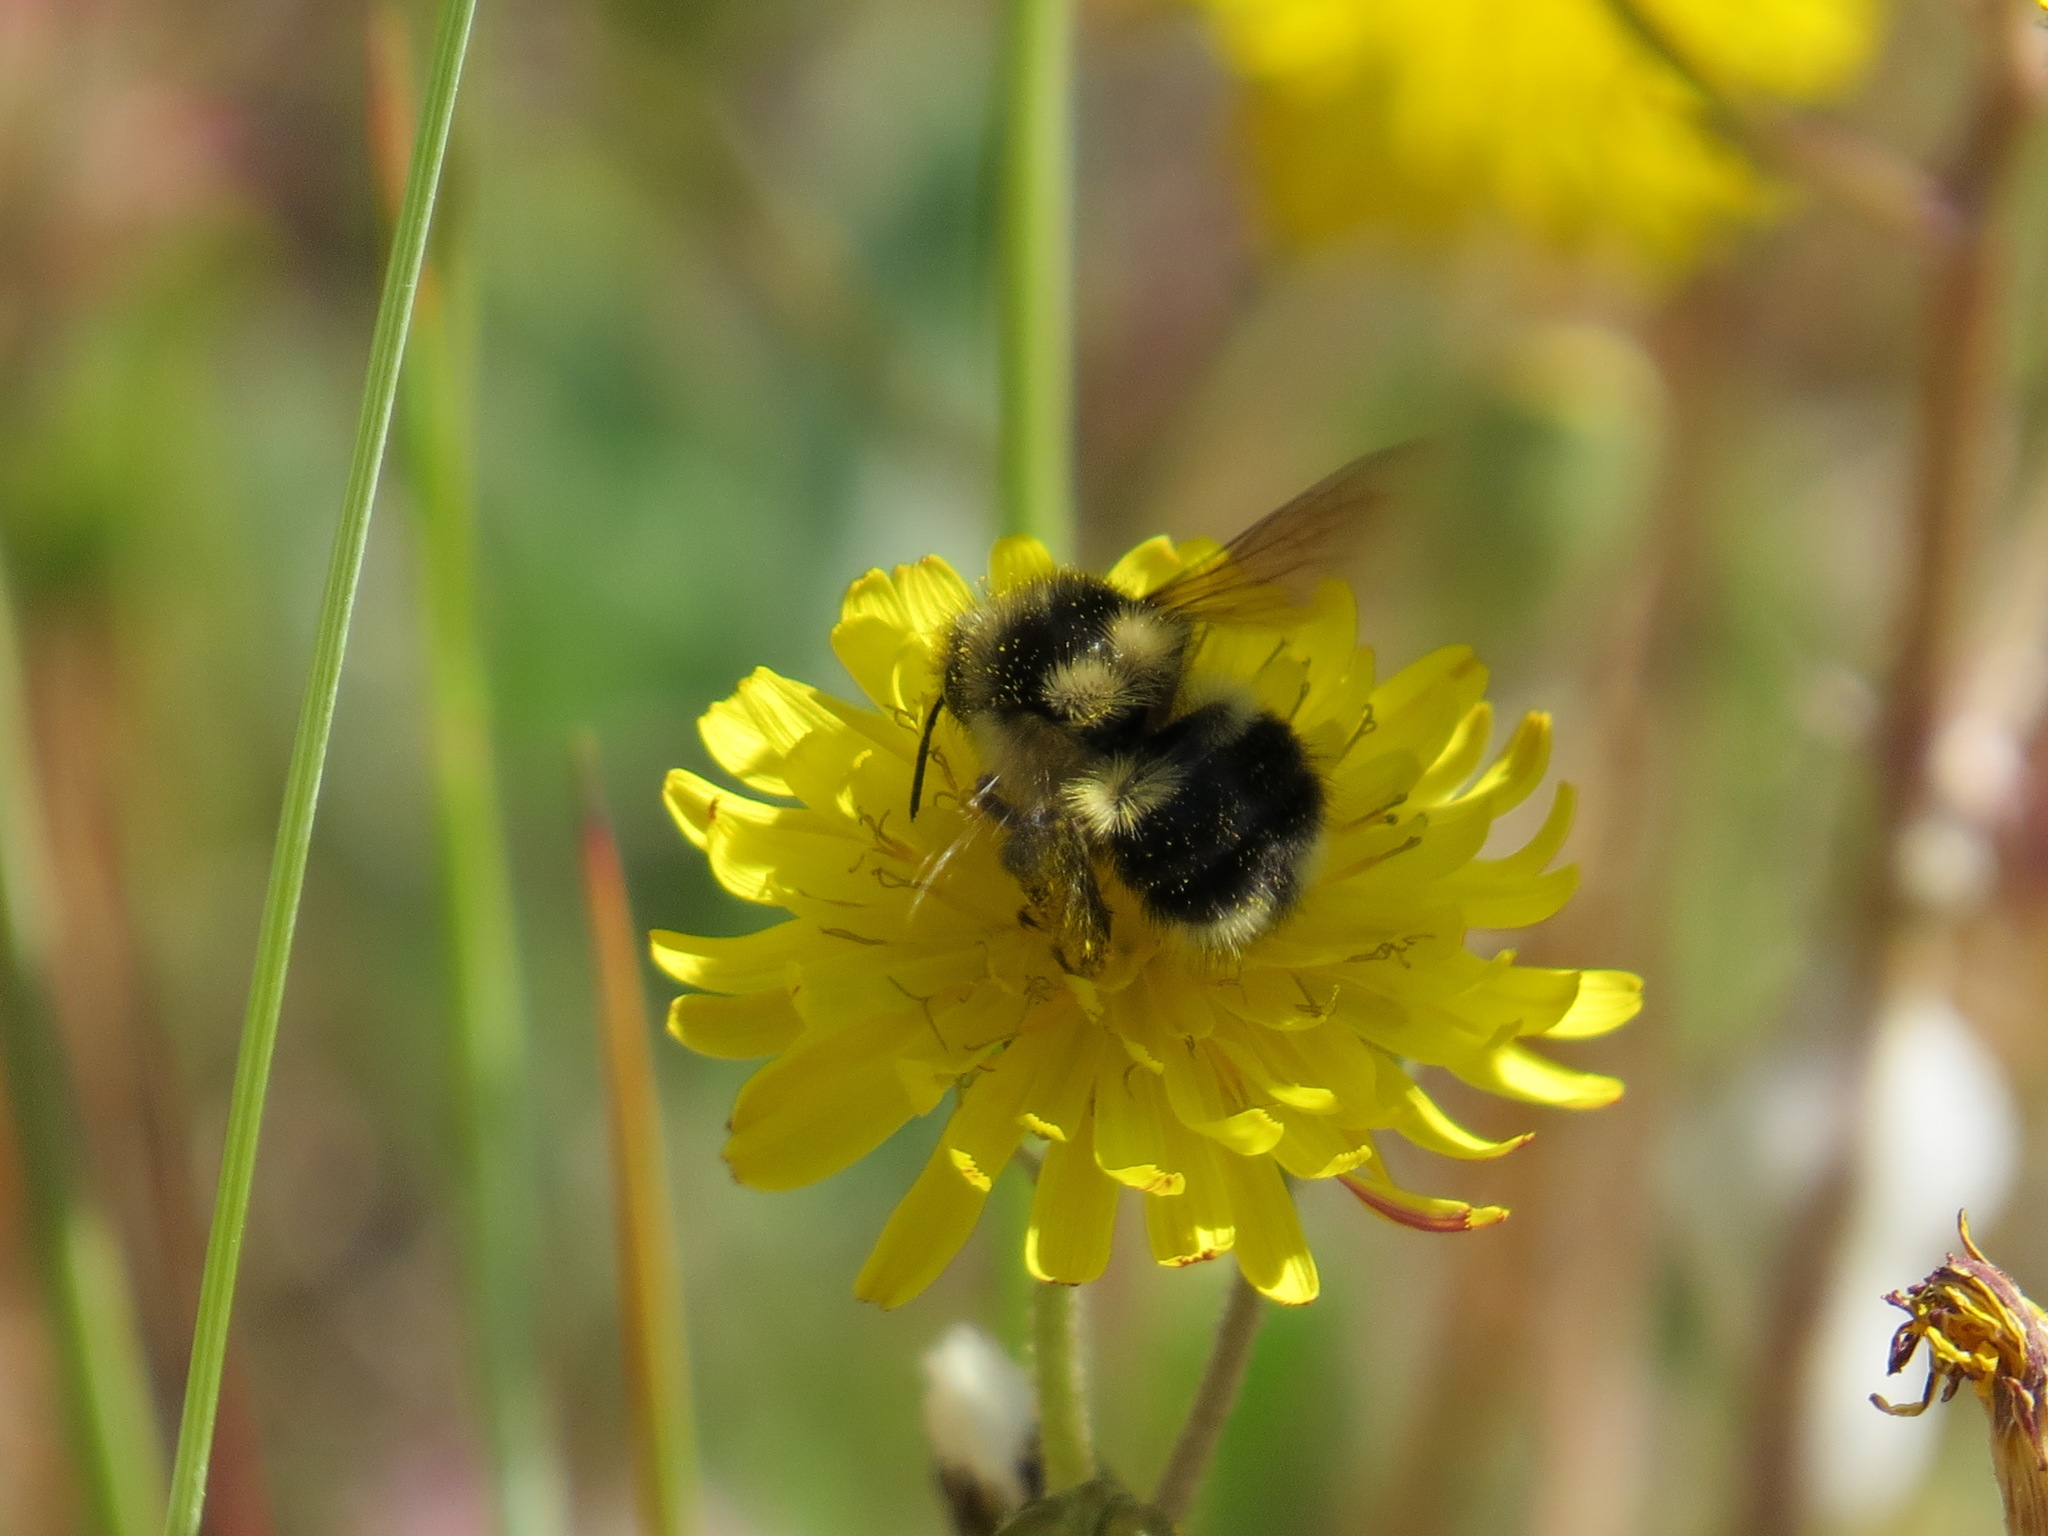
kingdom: Animalia
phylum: Arthropoda
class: Insecta
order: Hymenoptera
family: Apidae
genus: Bombus
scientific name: Bombus melanopygus
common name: Black tail bumble bee
